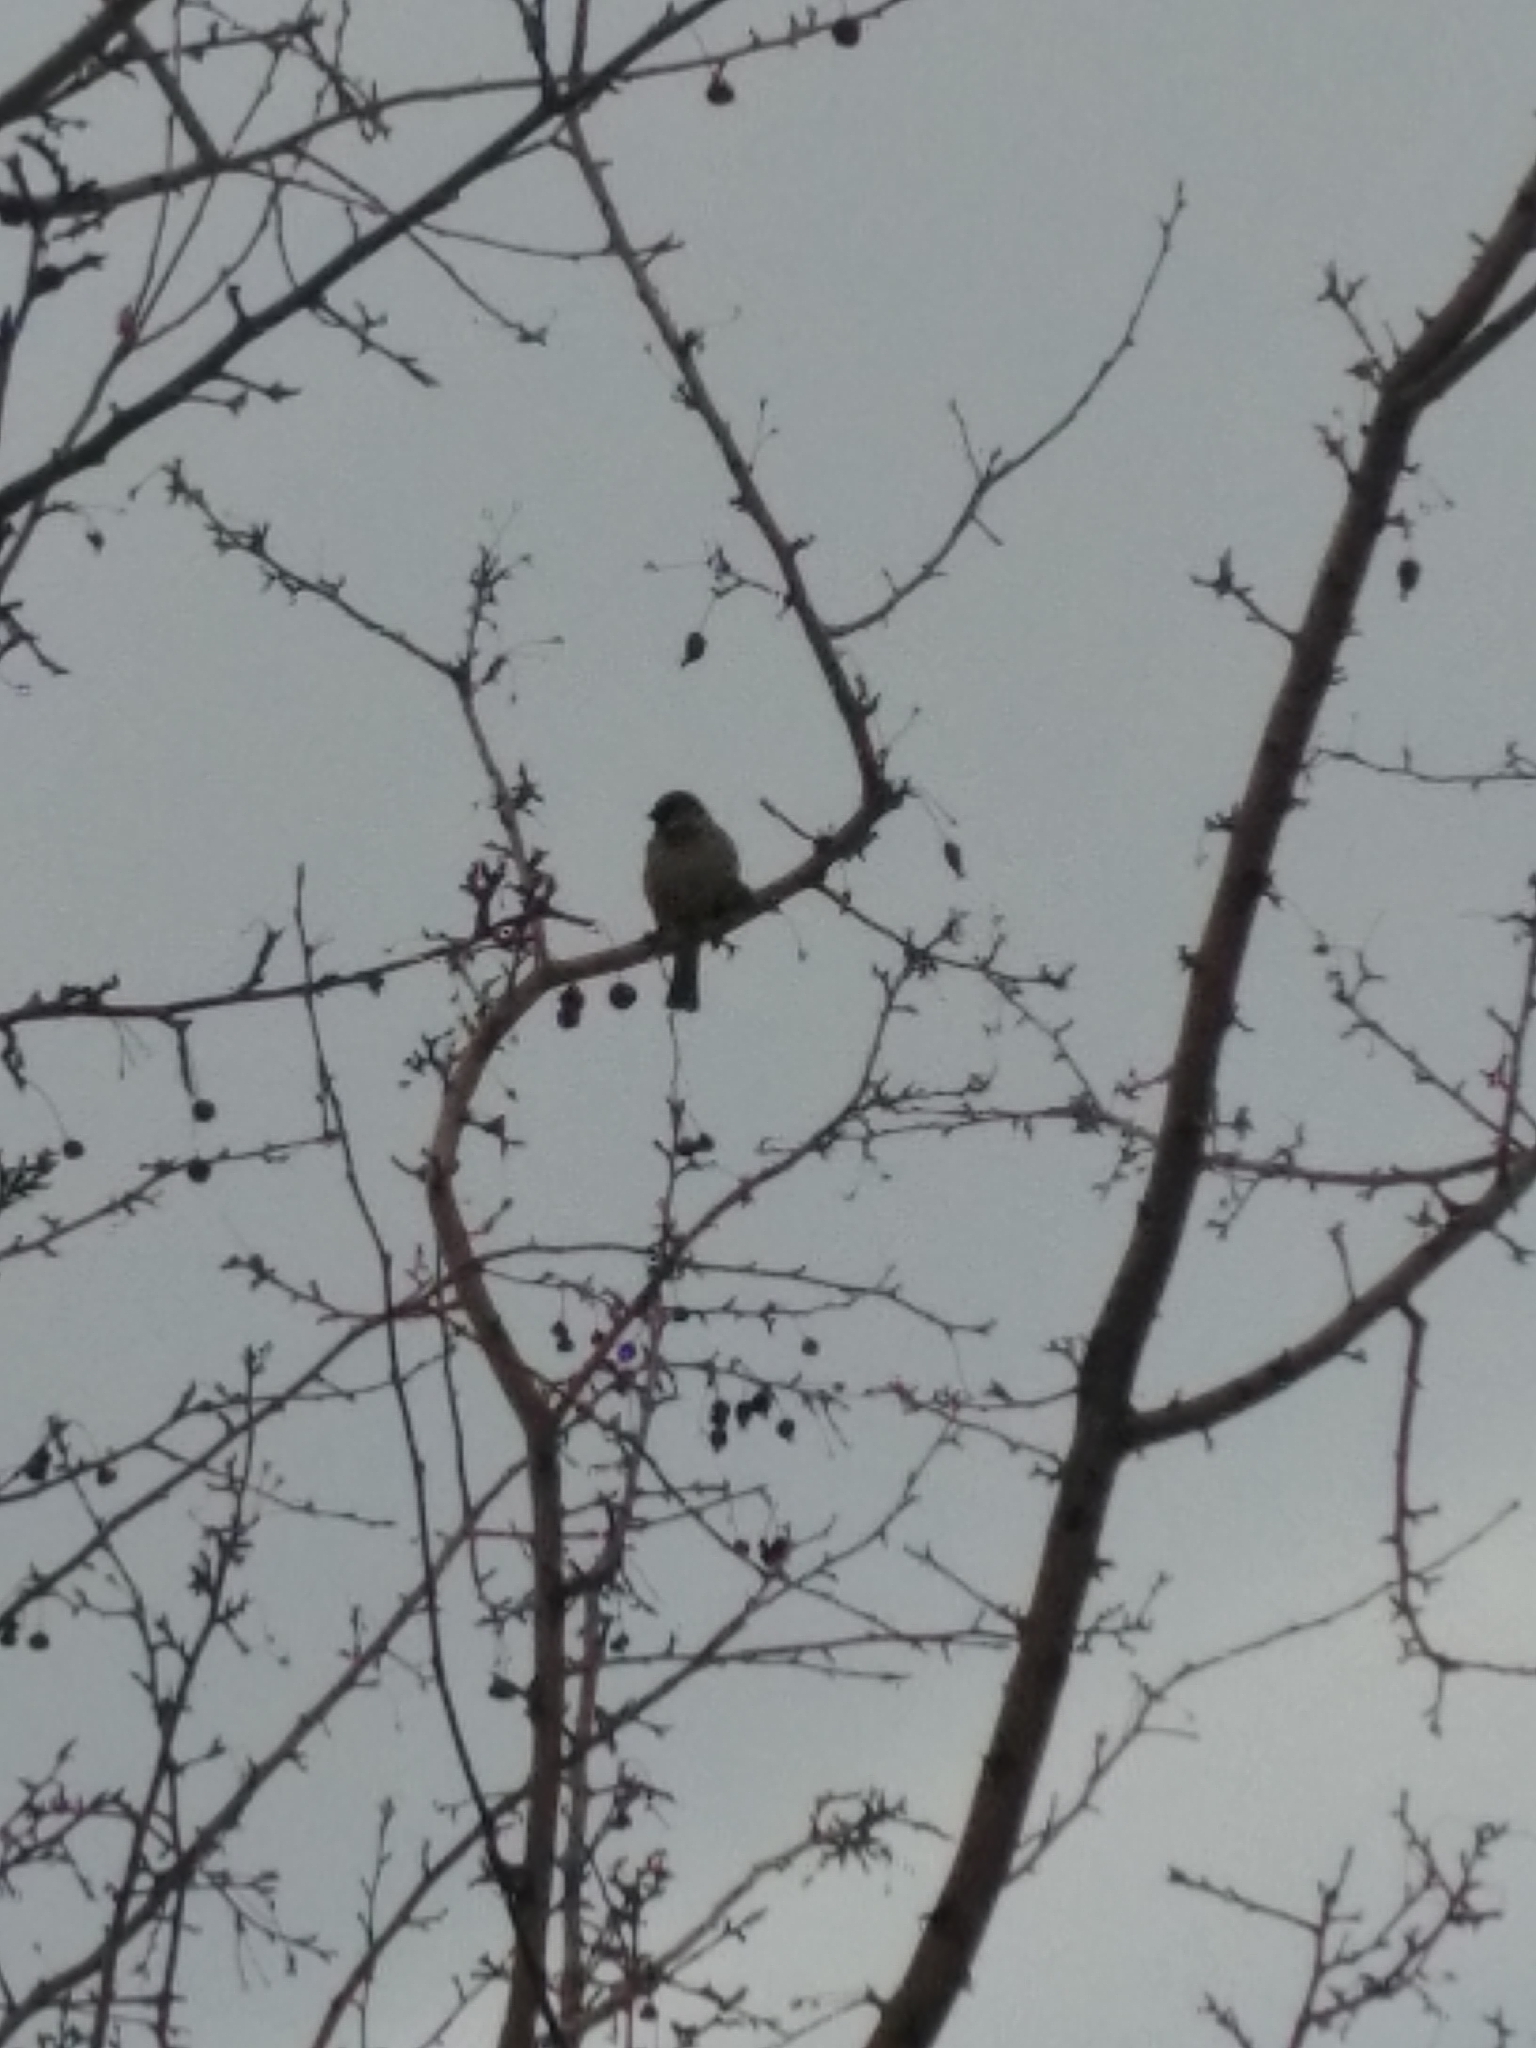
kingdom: Animalia
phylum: Chordata
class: Aves
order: Passeriformes
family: Passeridae
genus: Passer
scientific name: Passer domesticus
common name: House sparrow
